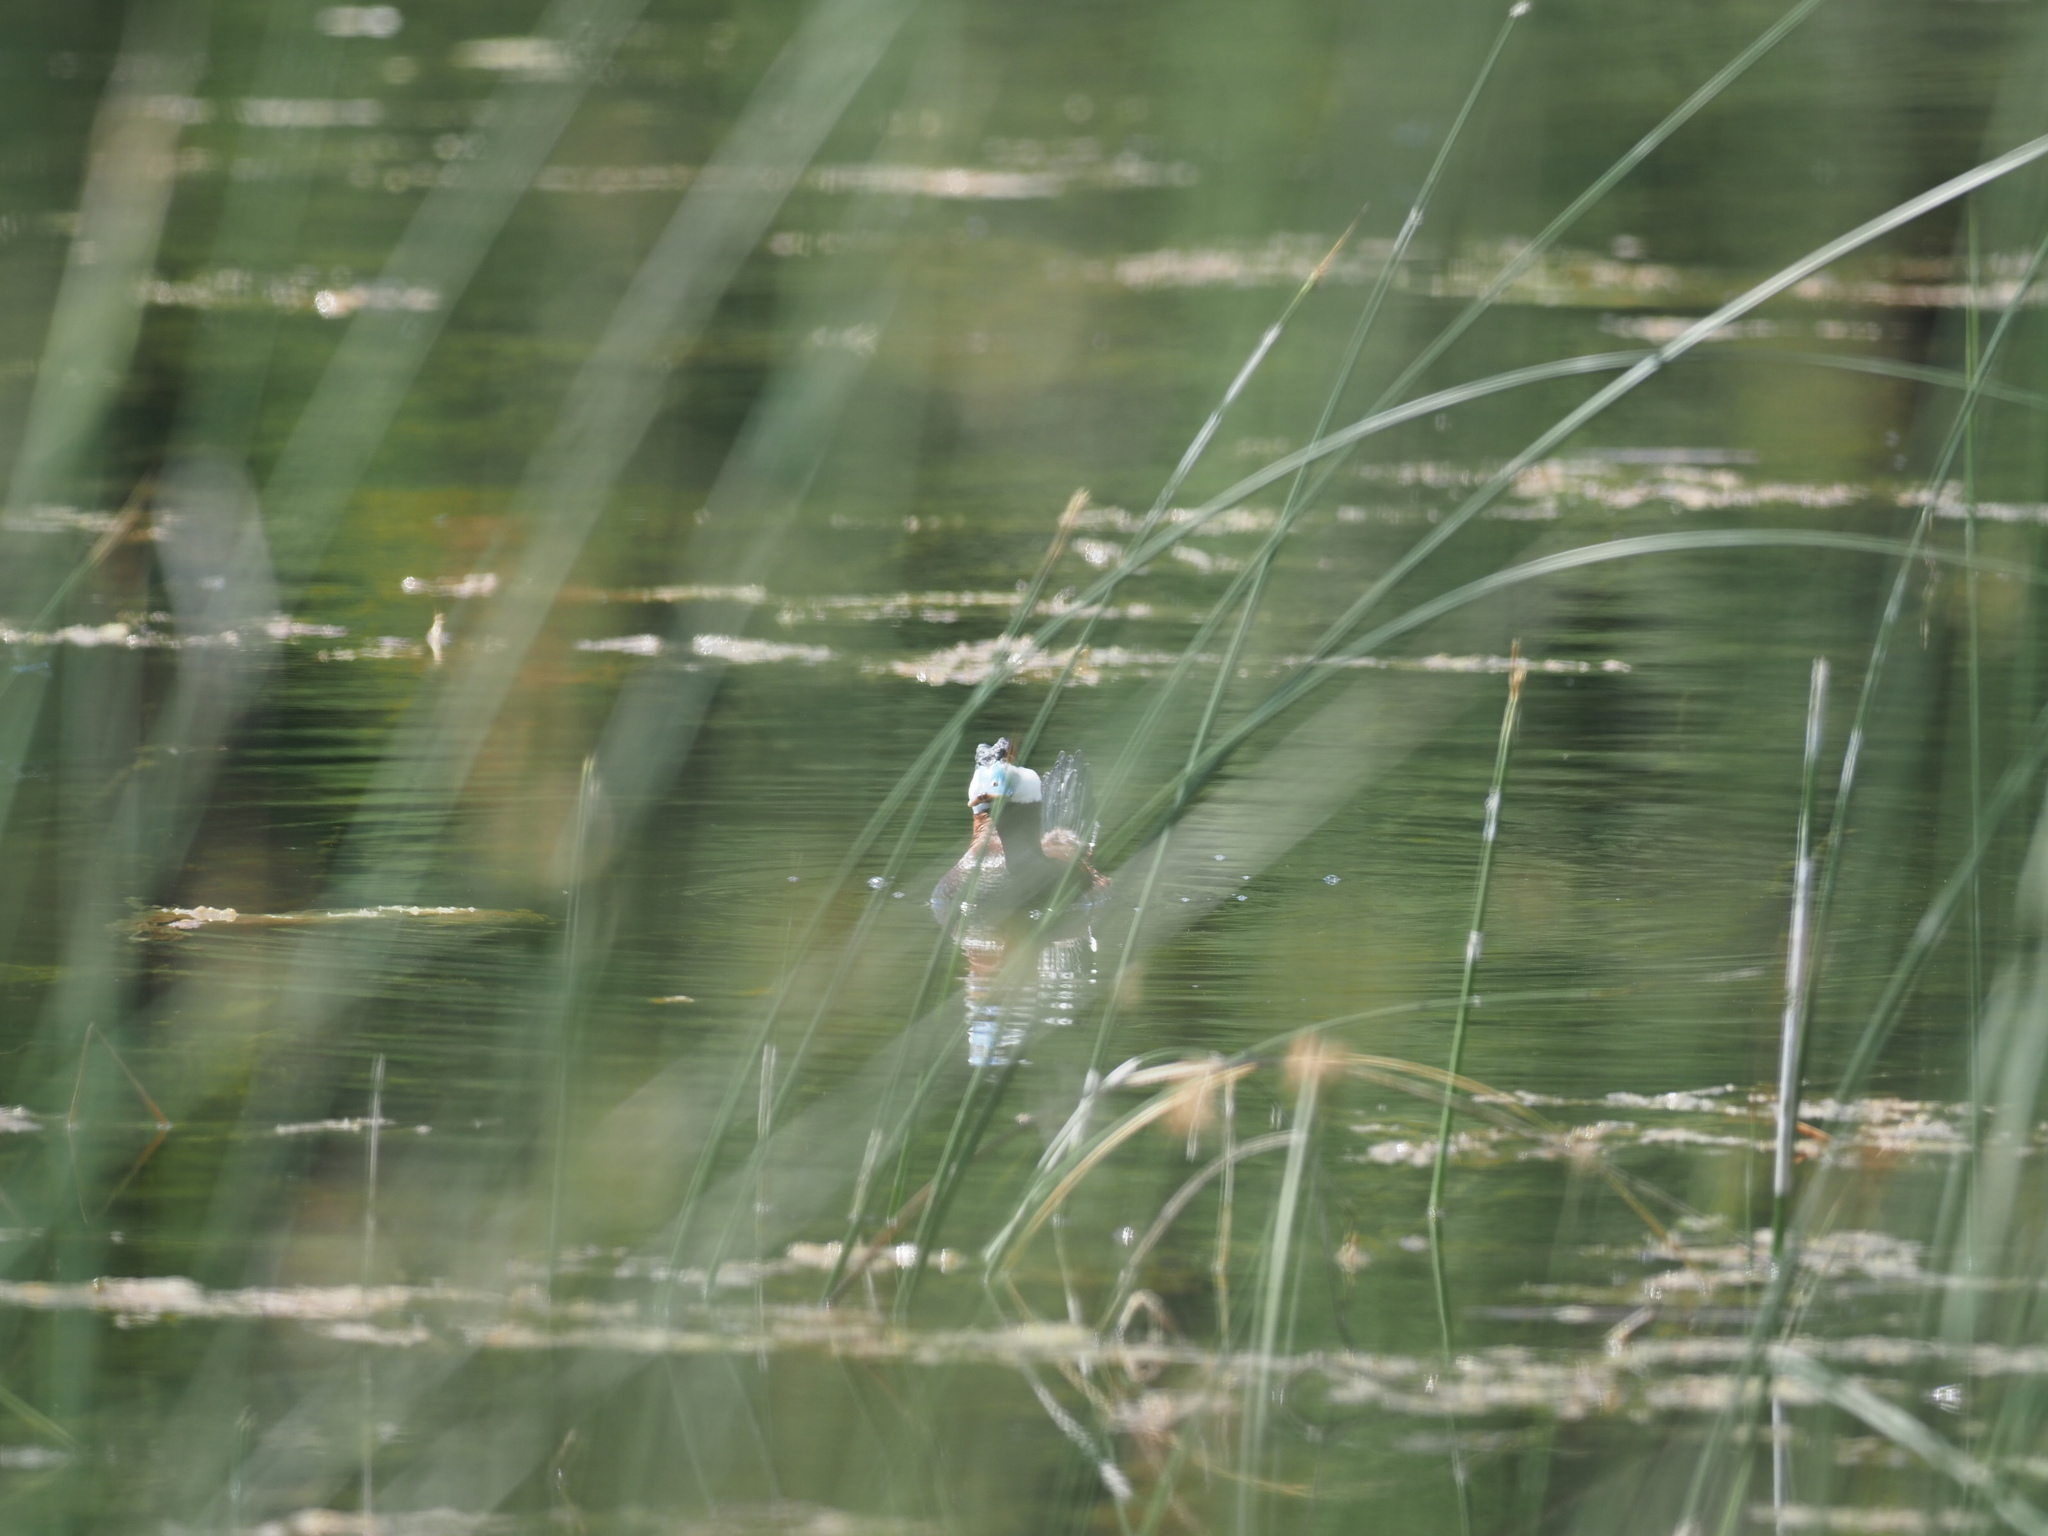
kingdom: Animalia
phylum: Chordata
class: Aves
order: Anseriformes
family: Anatidae
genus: Oxyura
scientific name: Oxyura jamaicensis
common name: Ruddy duck
